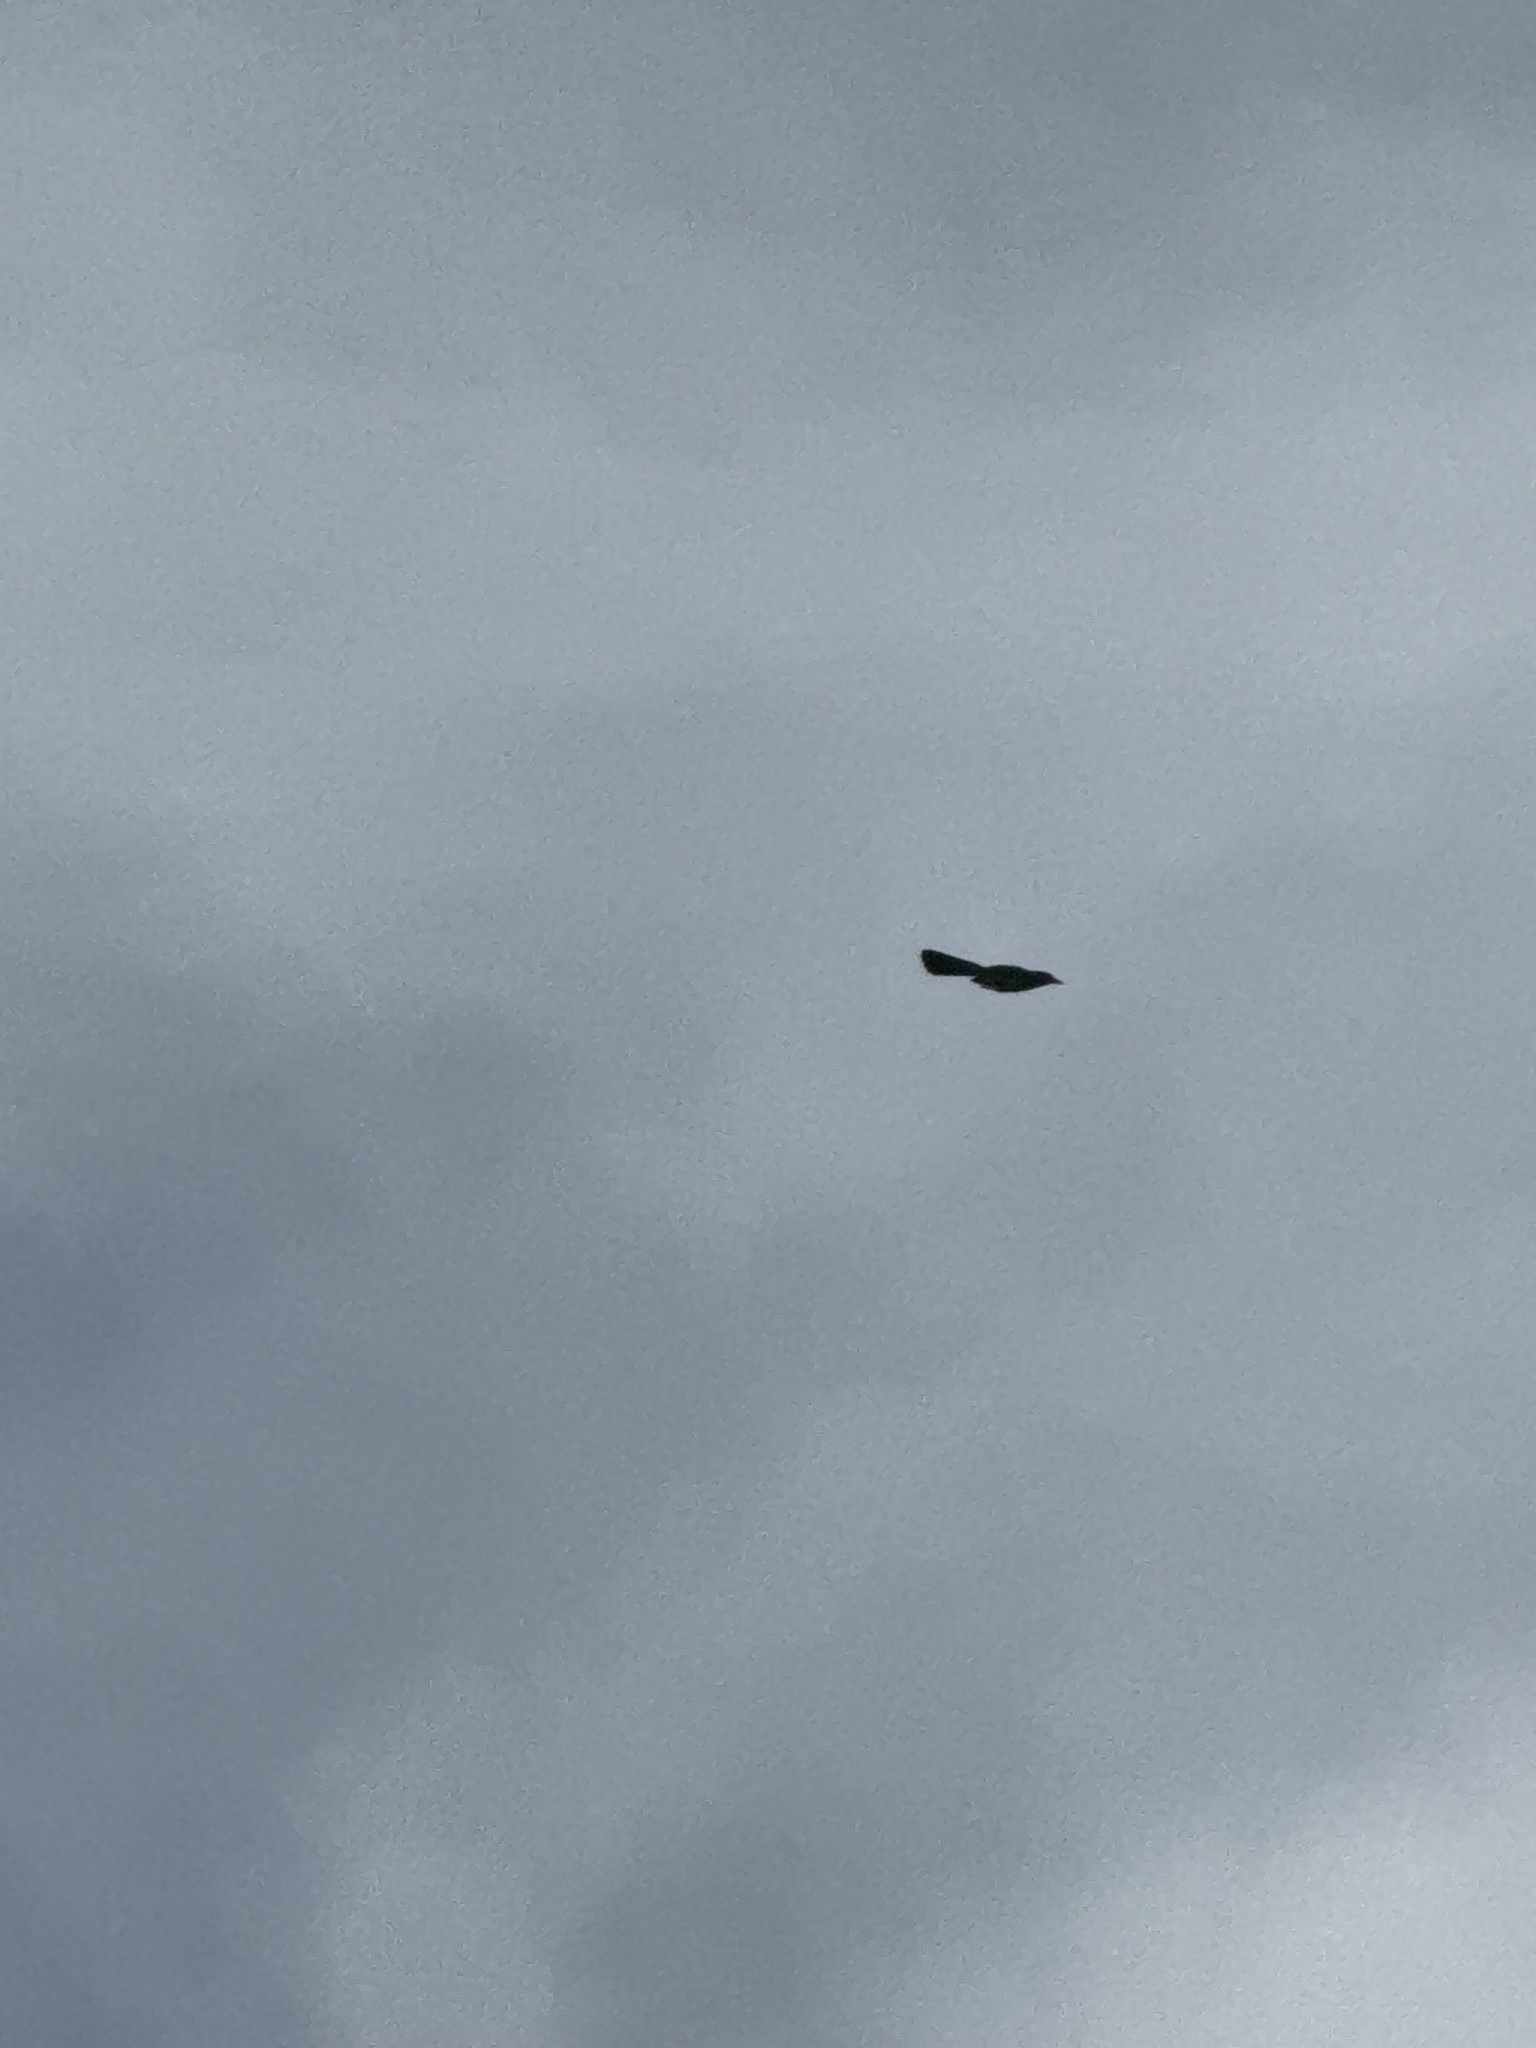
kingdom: Animalia
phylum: Chordata
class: Aves
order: Passeriformes
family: Corvidae
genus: Aphelocoma
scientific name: Aphelocoma californica
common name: California scrub-jay
